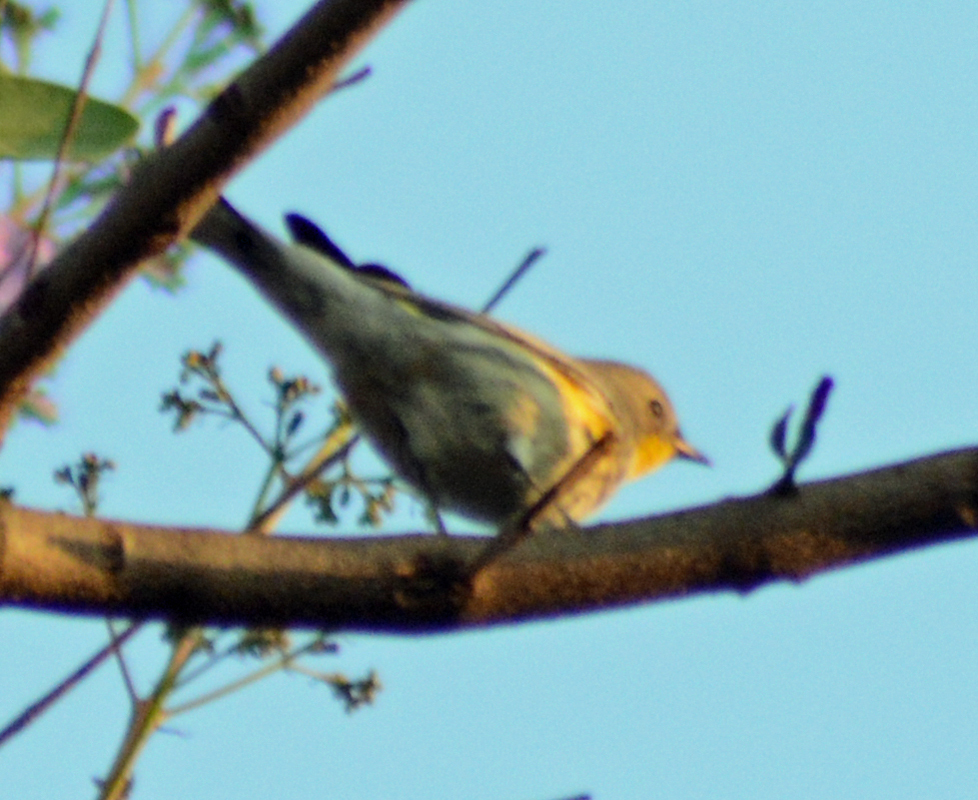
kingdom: Animalia
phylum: Chordata
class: Aves
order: Passeriformes
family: Parulidae
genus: Setophaga
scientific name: Setophaga coronata
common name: Myrtle warbler
